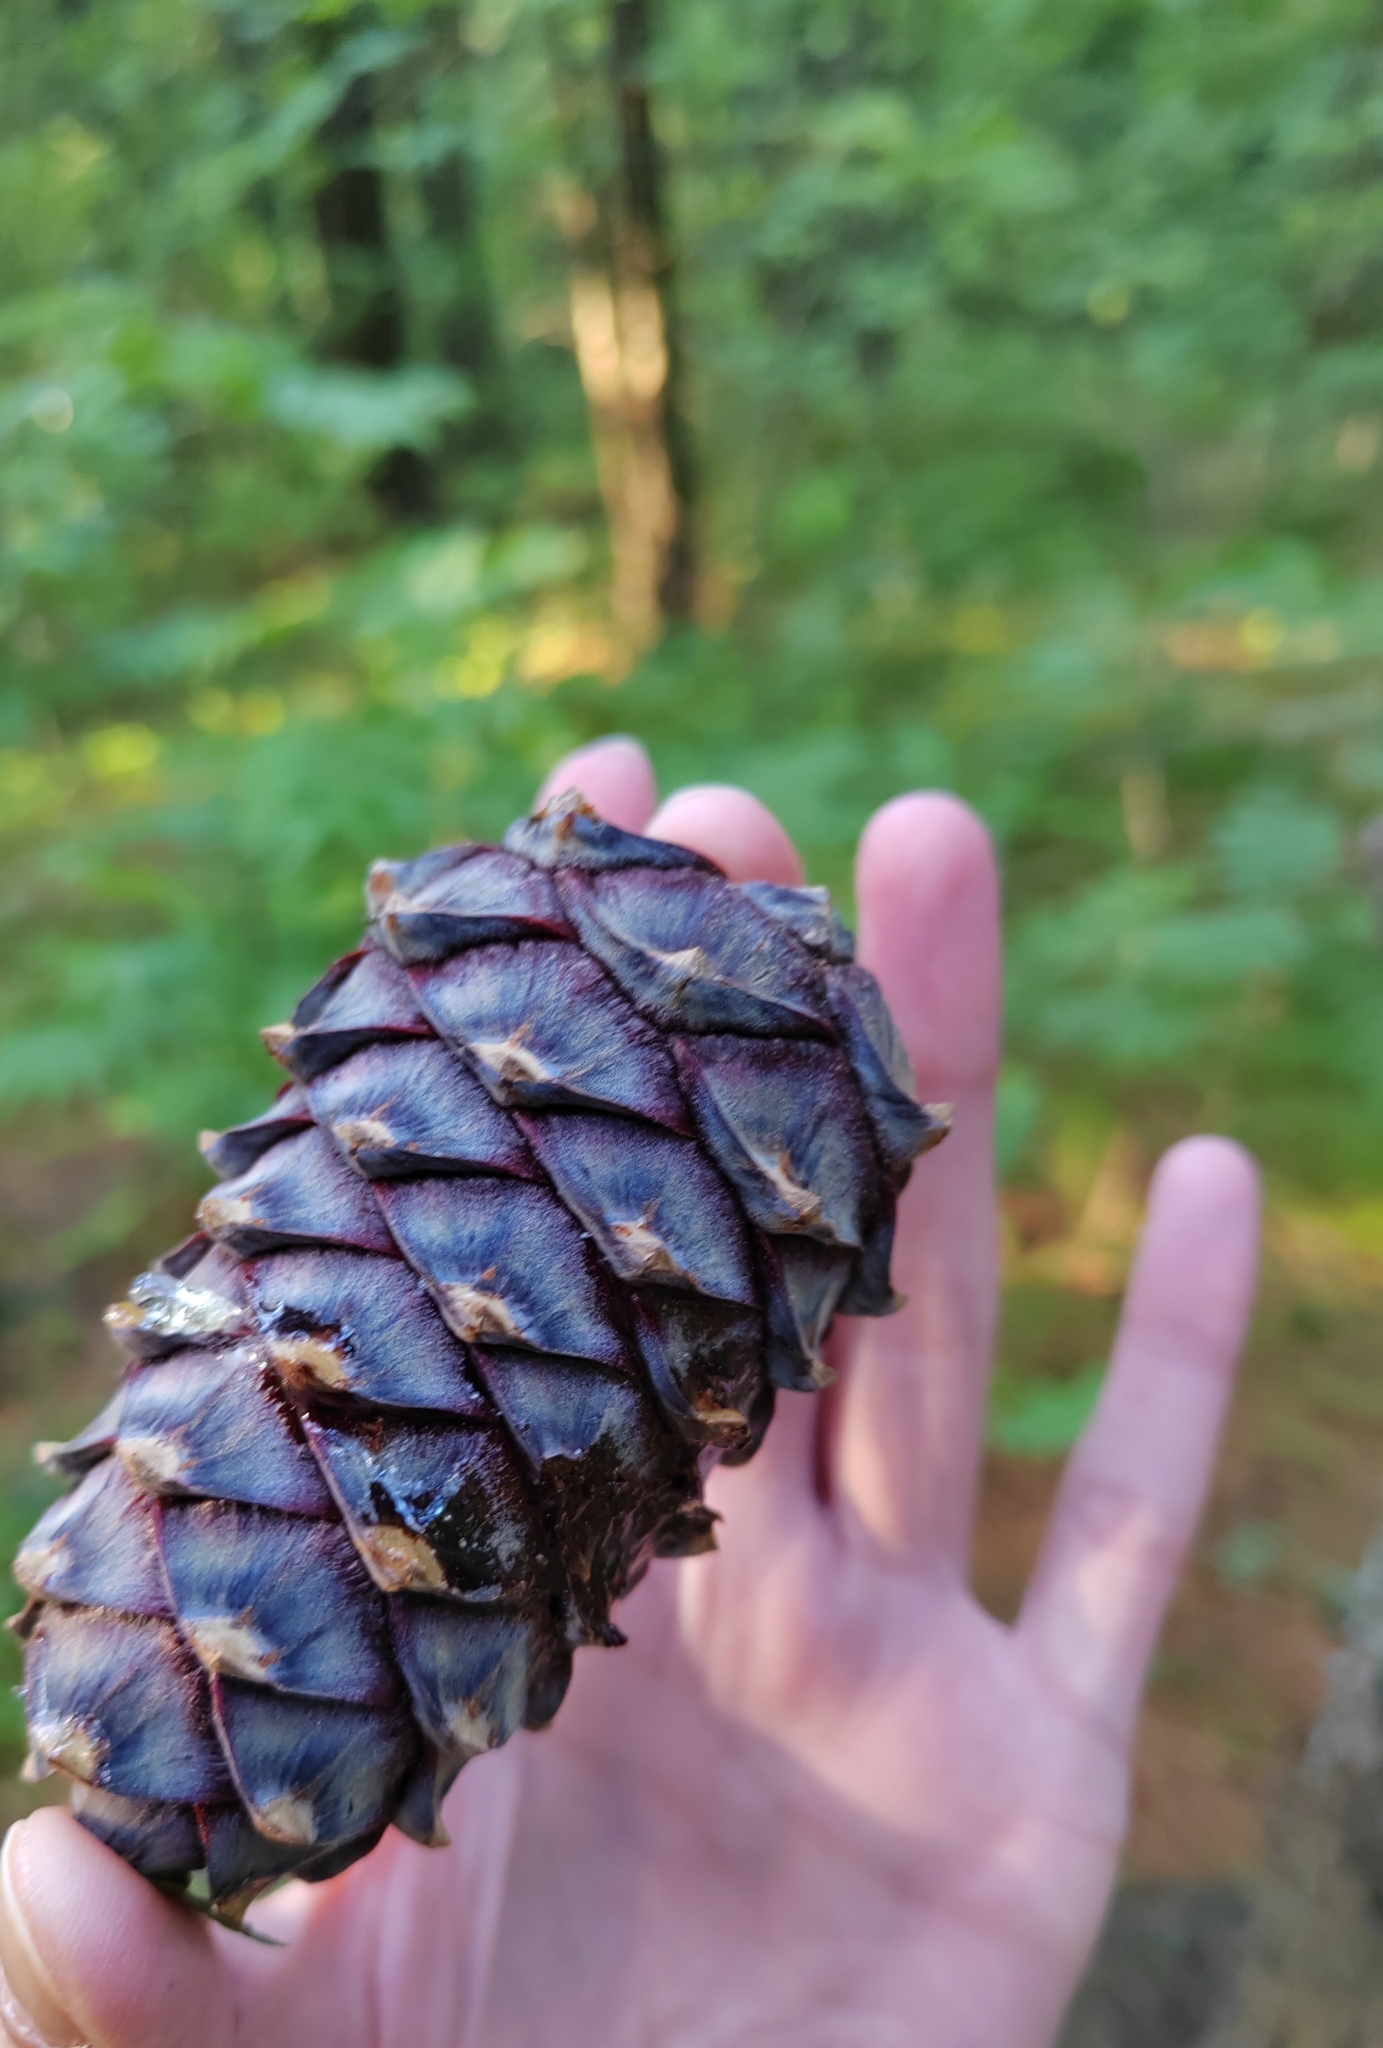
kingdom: Plantae
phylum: Tracheophyta
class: Pinopsida
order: Pinales
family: Pinaceae
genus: Pinus
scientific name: Pinus sibirica
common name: Siberian pine
